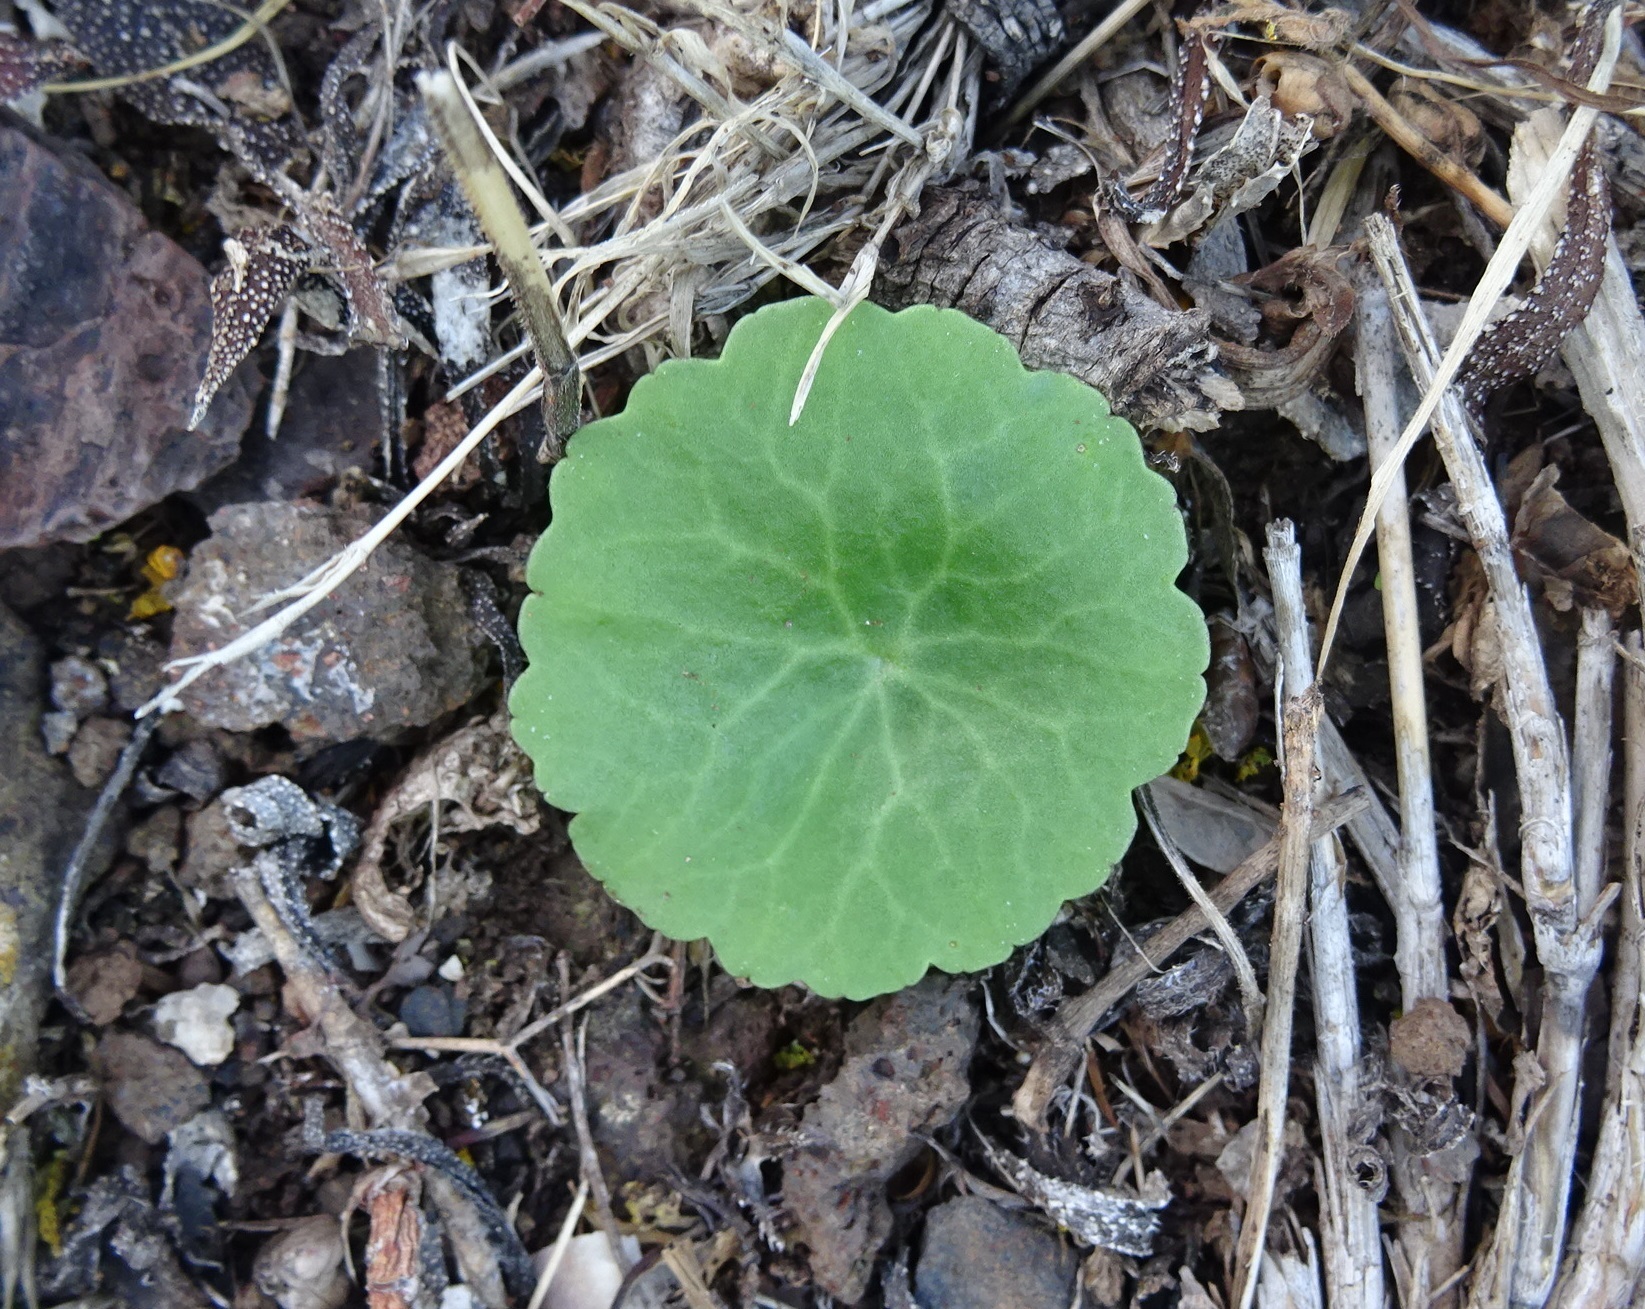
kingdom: Plantae
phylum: Tracheophyta
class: Magnoliopsida
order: Saxifragales
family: Crassulaceae
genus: Umbilicus
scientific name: Umbilicus horizontalis
